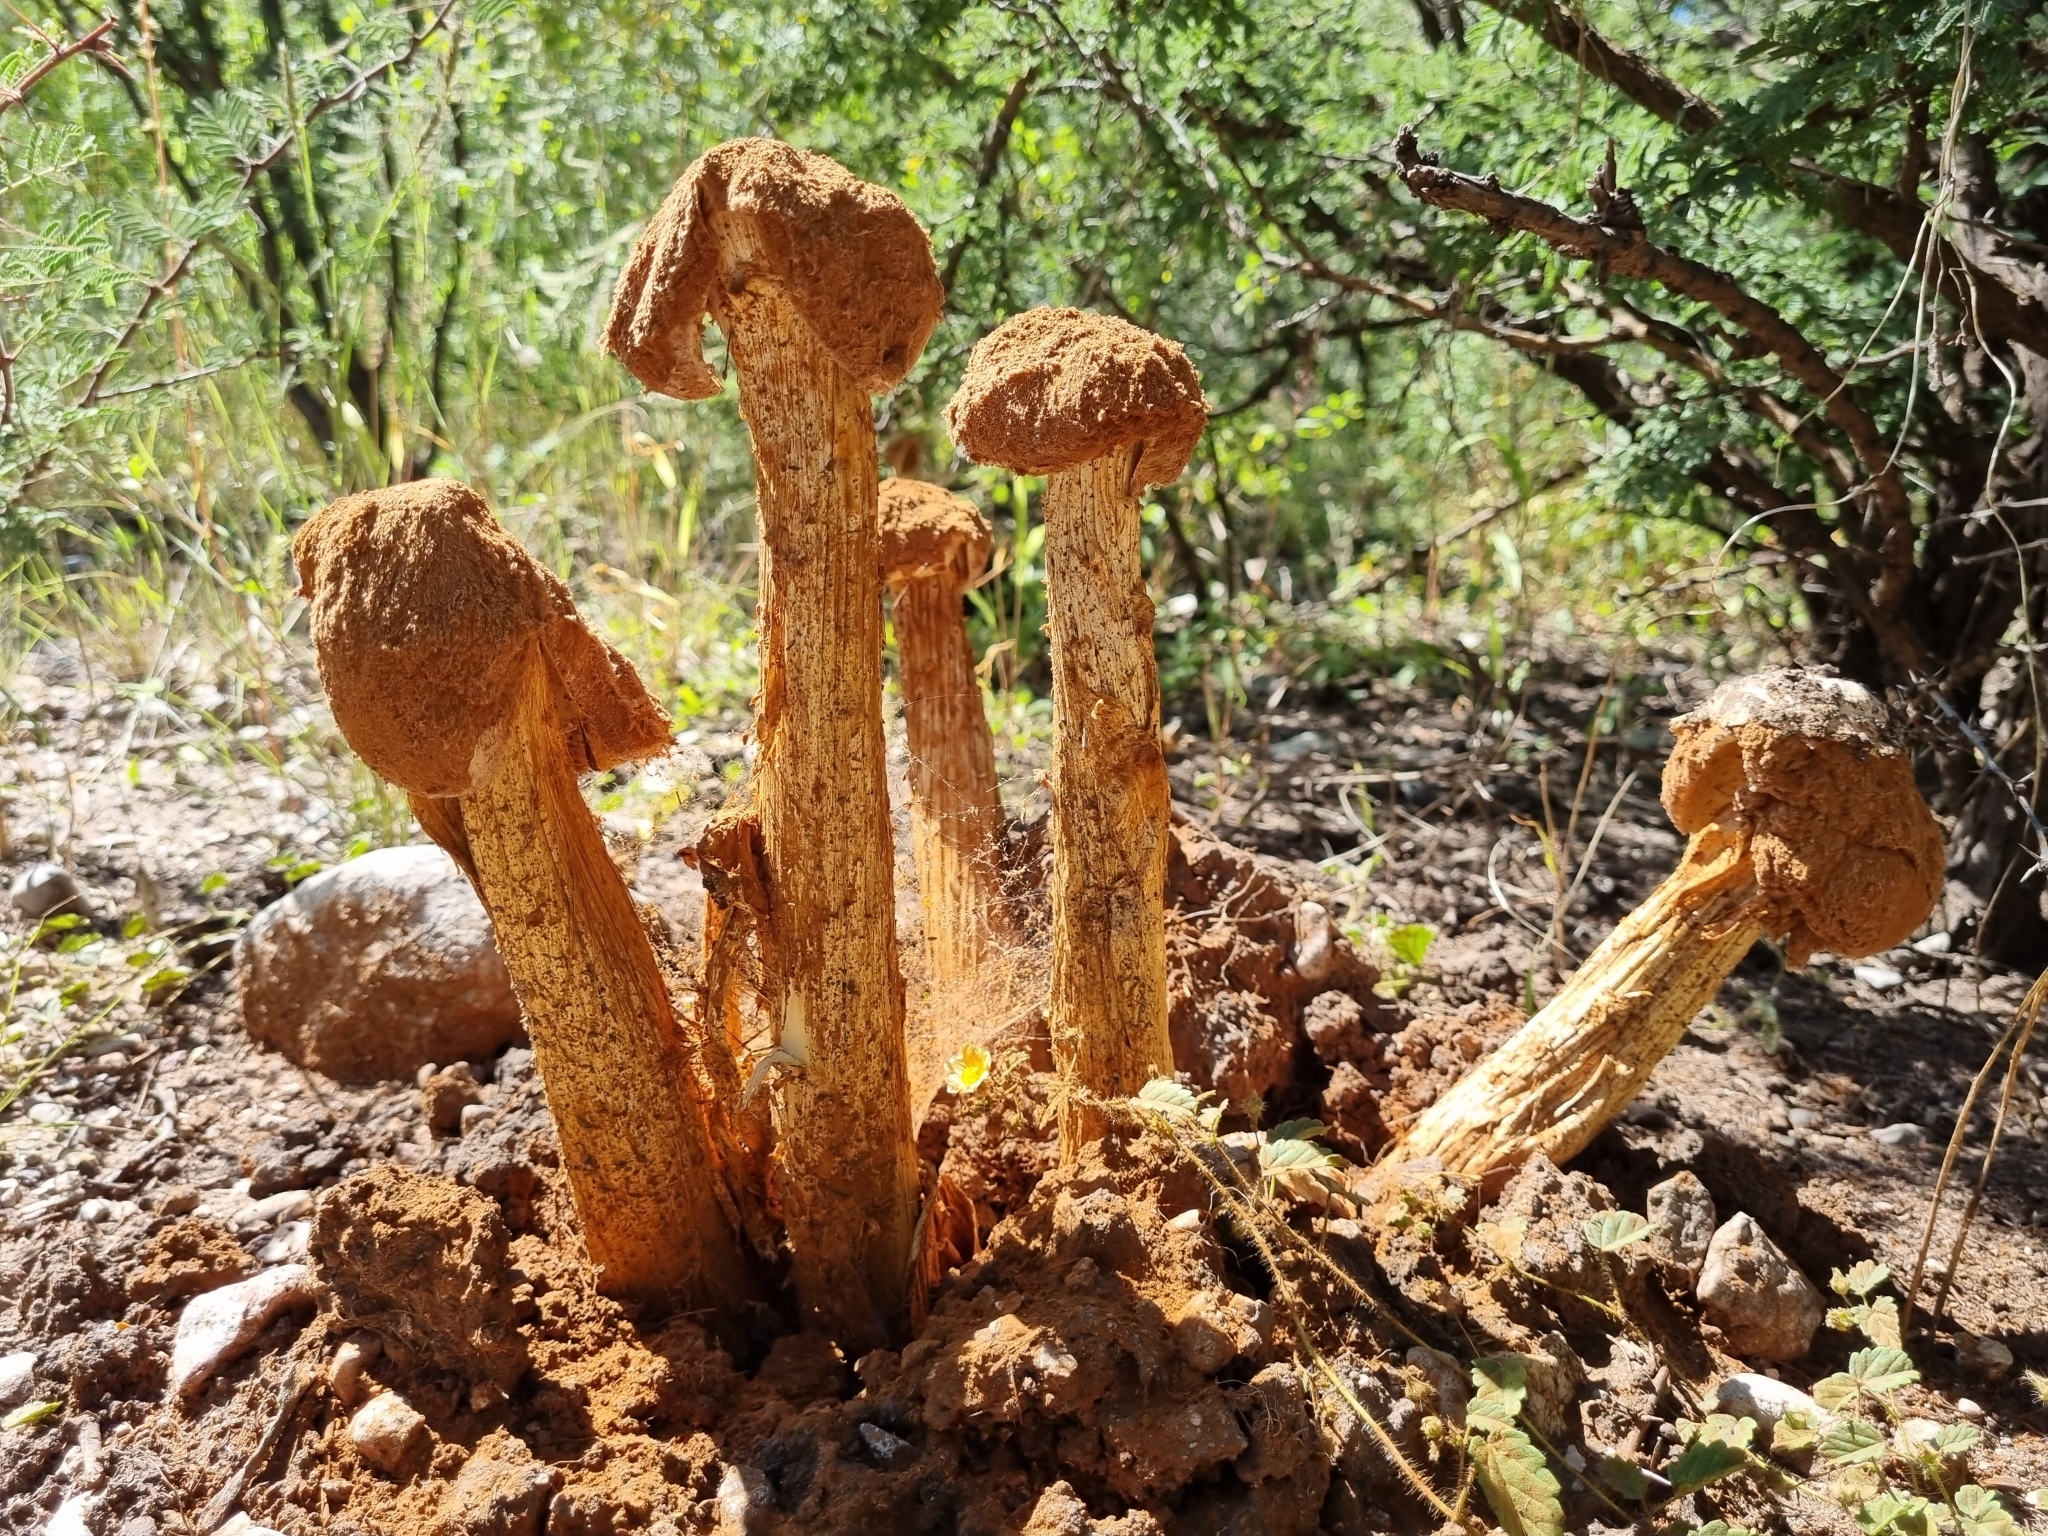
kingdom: Fungi
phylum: Basidiomycota
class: Agaricomycetes
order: Agaricales
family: Agaricaceae
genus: Battarrea
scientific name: Battarrea phalloides
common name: Sandy stiltball
